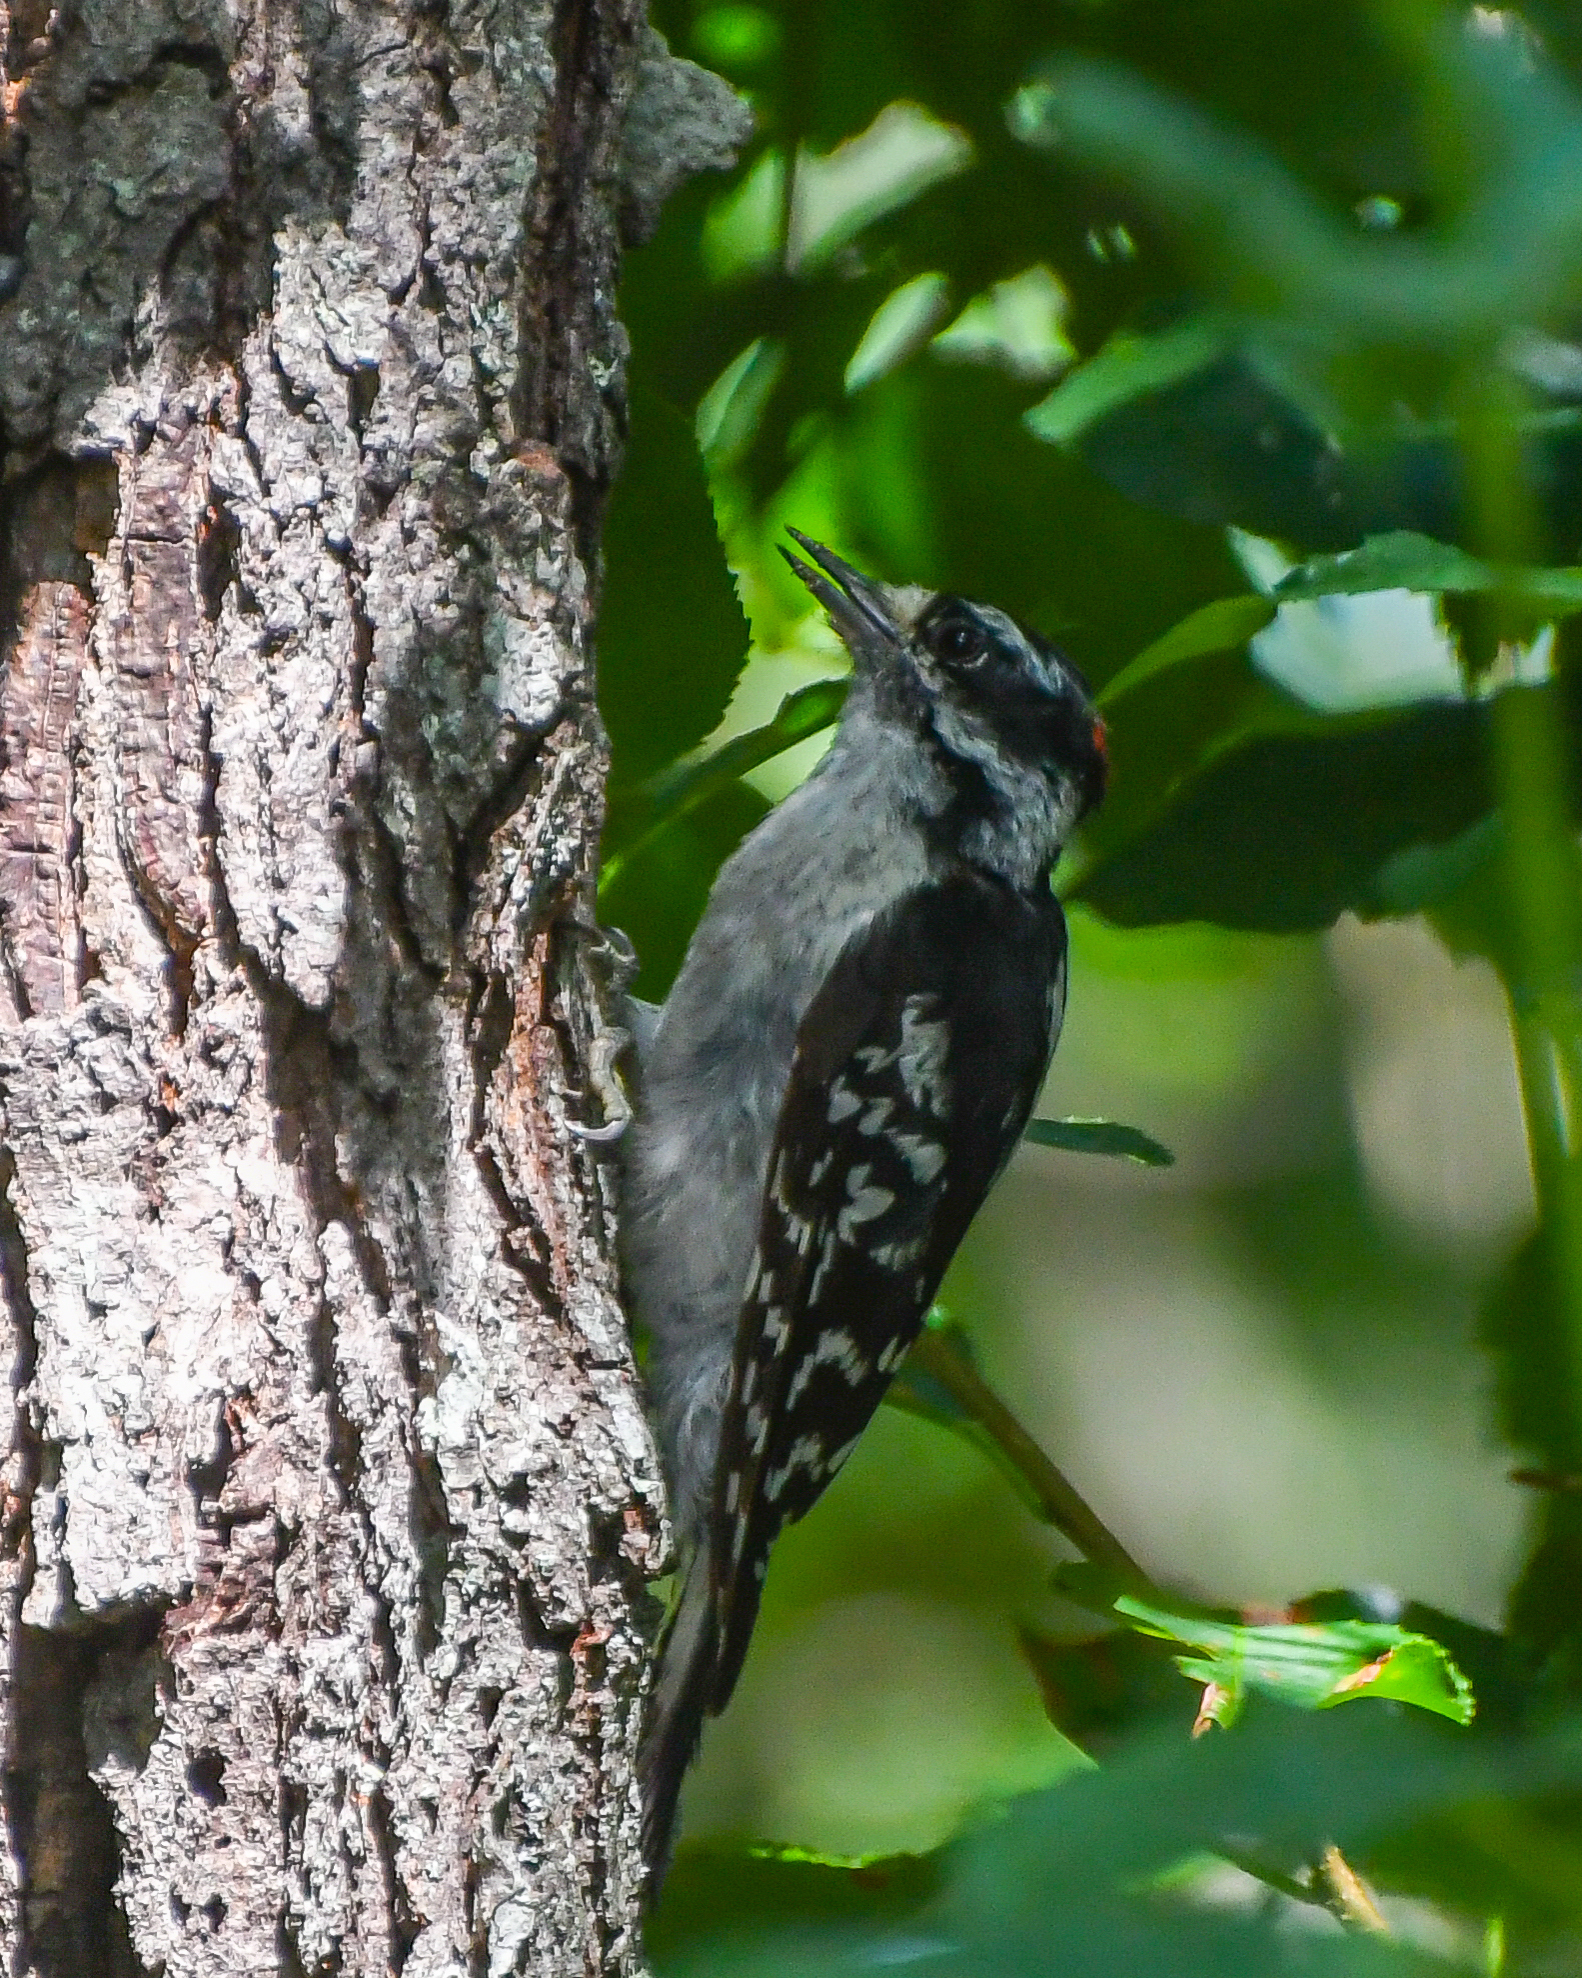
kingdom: Animalia
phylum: Chordata
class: Aves
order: Piciformes
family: Picidae
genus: Dryobates
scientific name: Dryobates pubescens
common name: Downy woodpecker
